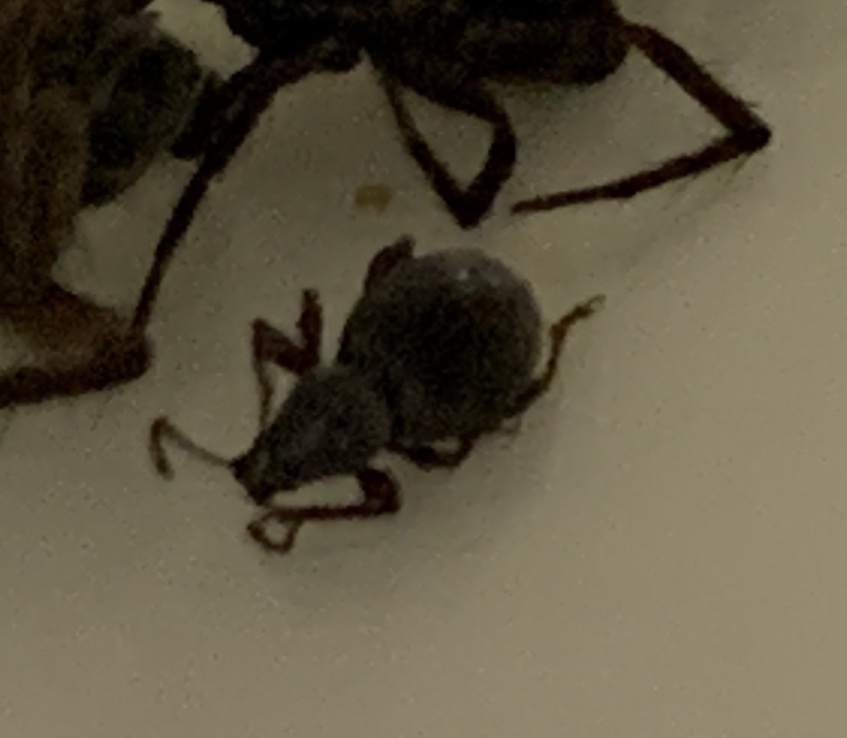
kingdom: Animalia
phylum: Arthropoda
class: Insecta
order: Coleoptera
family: Curculionidae
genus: Otiorhynchus
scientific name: Otiorhynchus ovatus
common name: Strawberry root weevil
